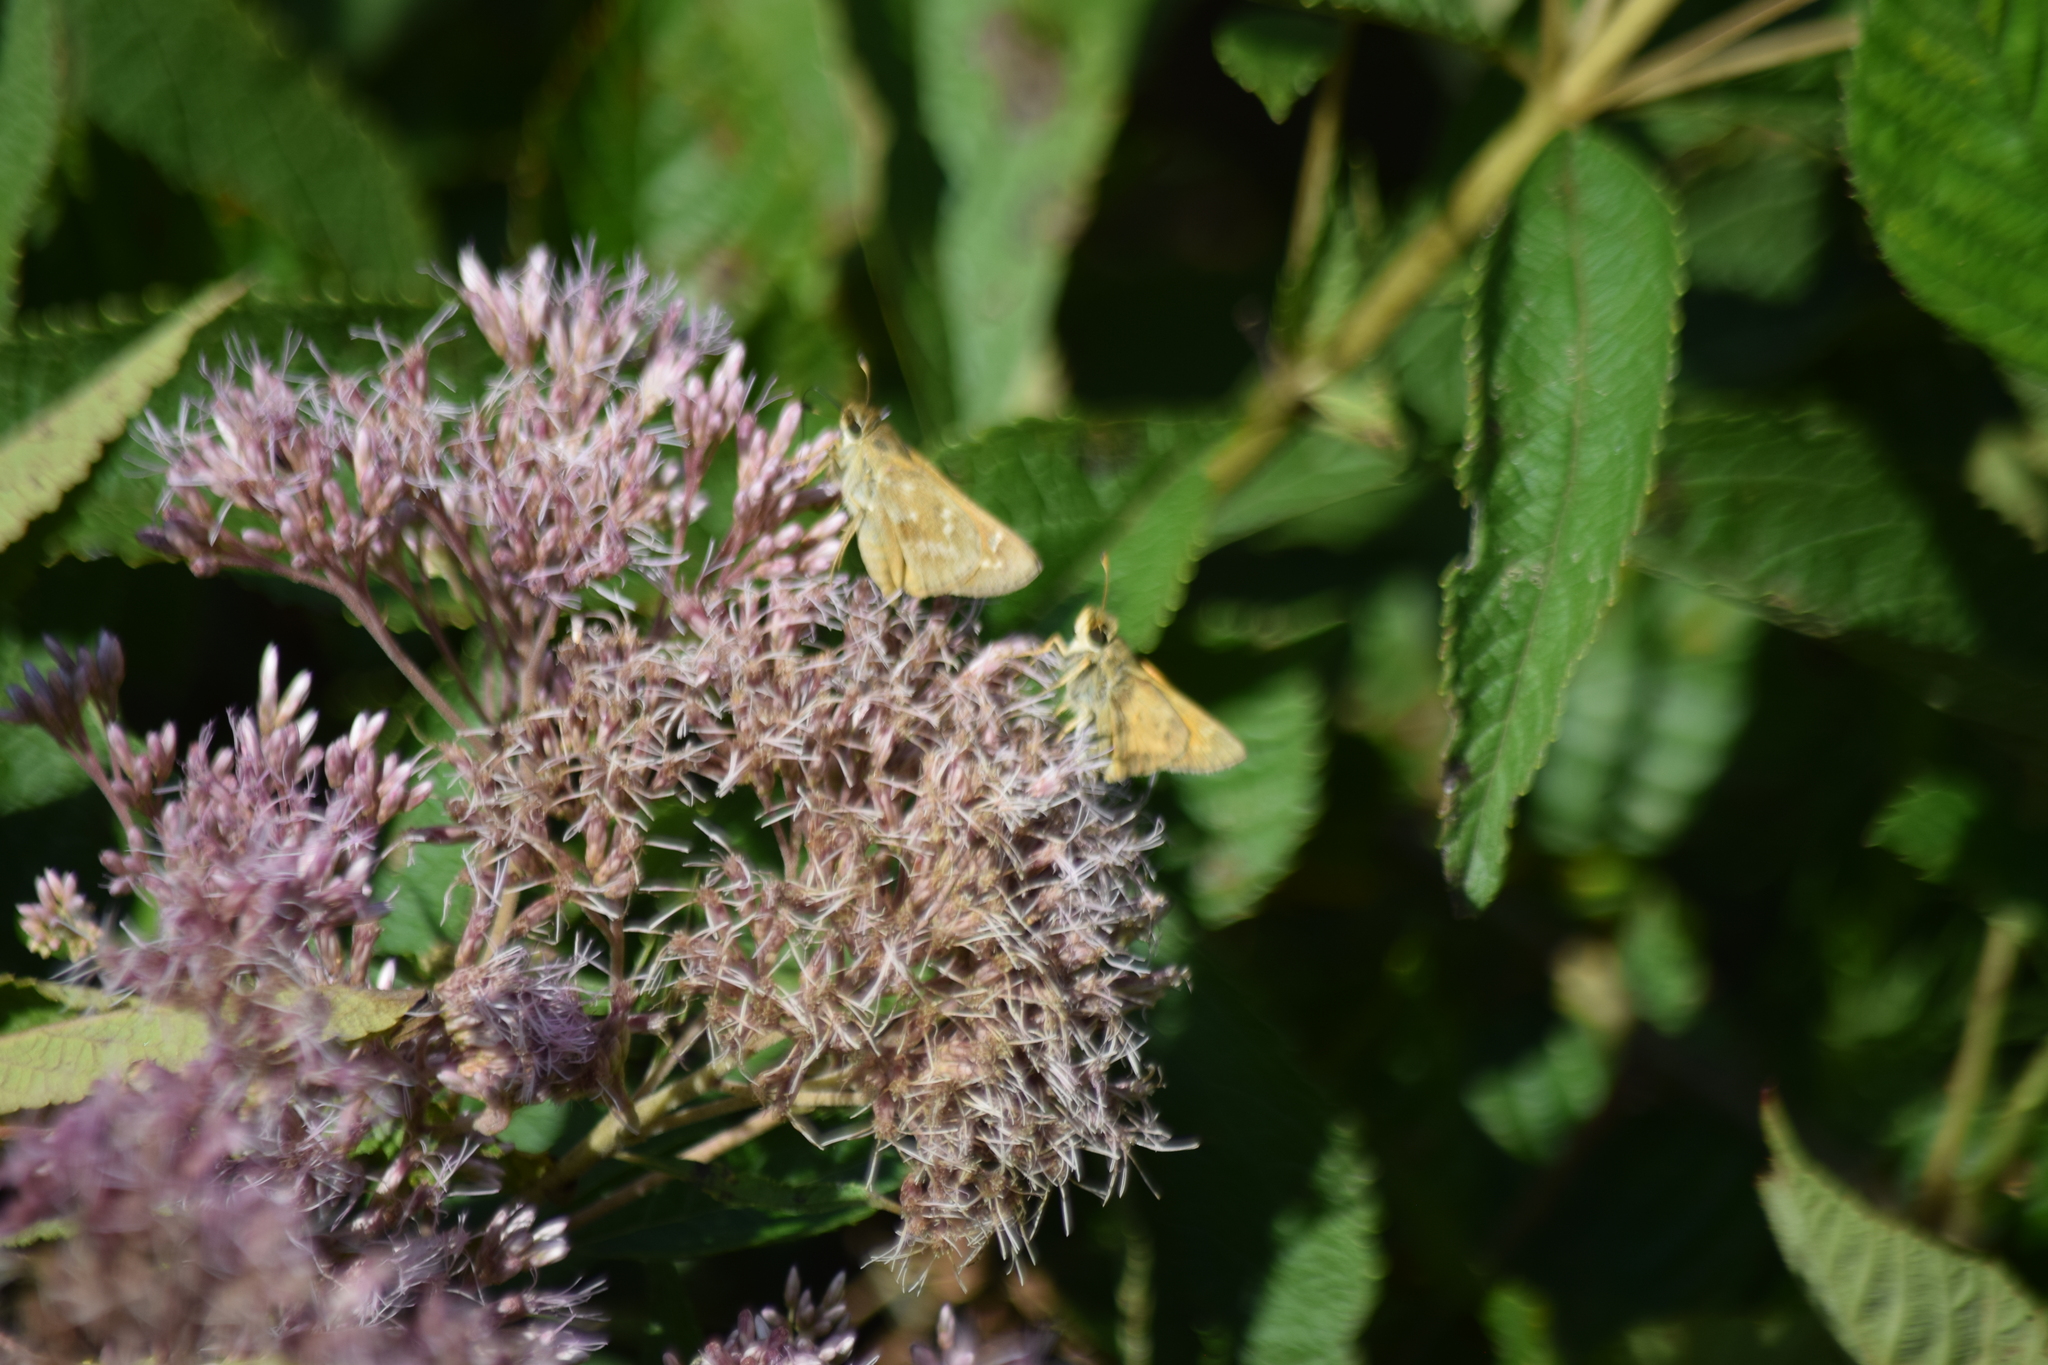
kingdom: Animalia
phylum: Arthropoda
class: Insecta
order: Lepidoptera
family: Hesperiidae
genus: Atalopedes
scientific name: Atalopedes
